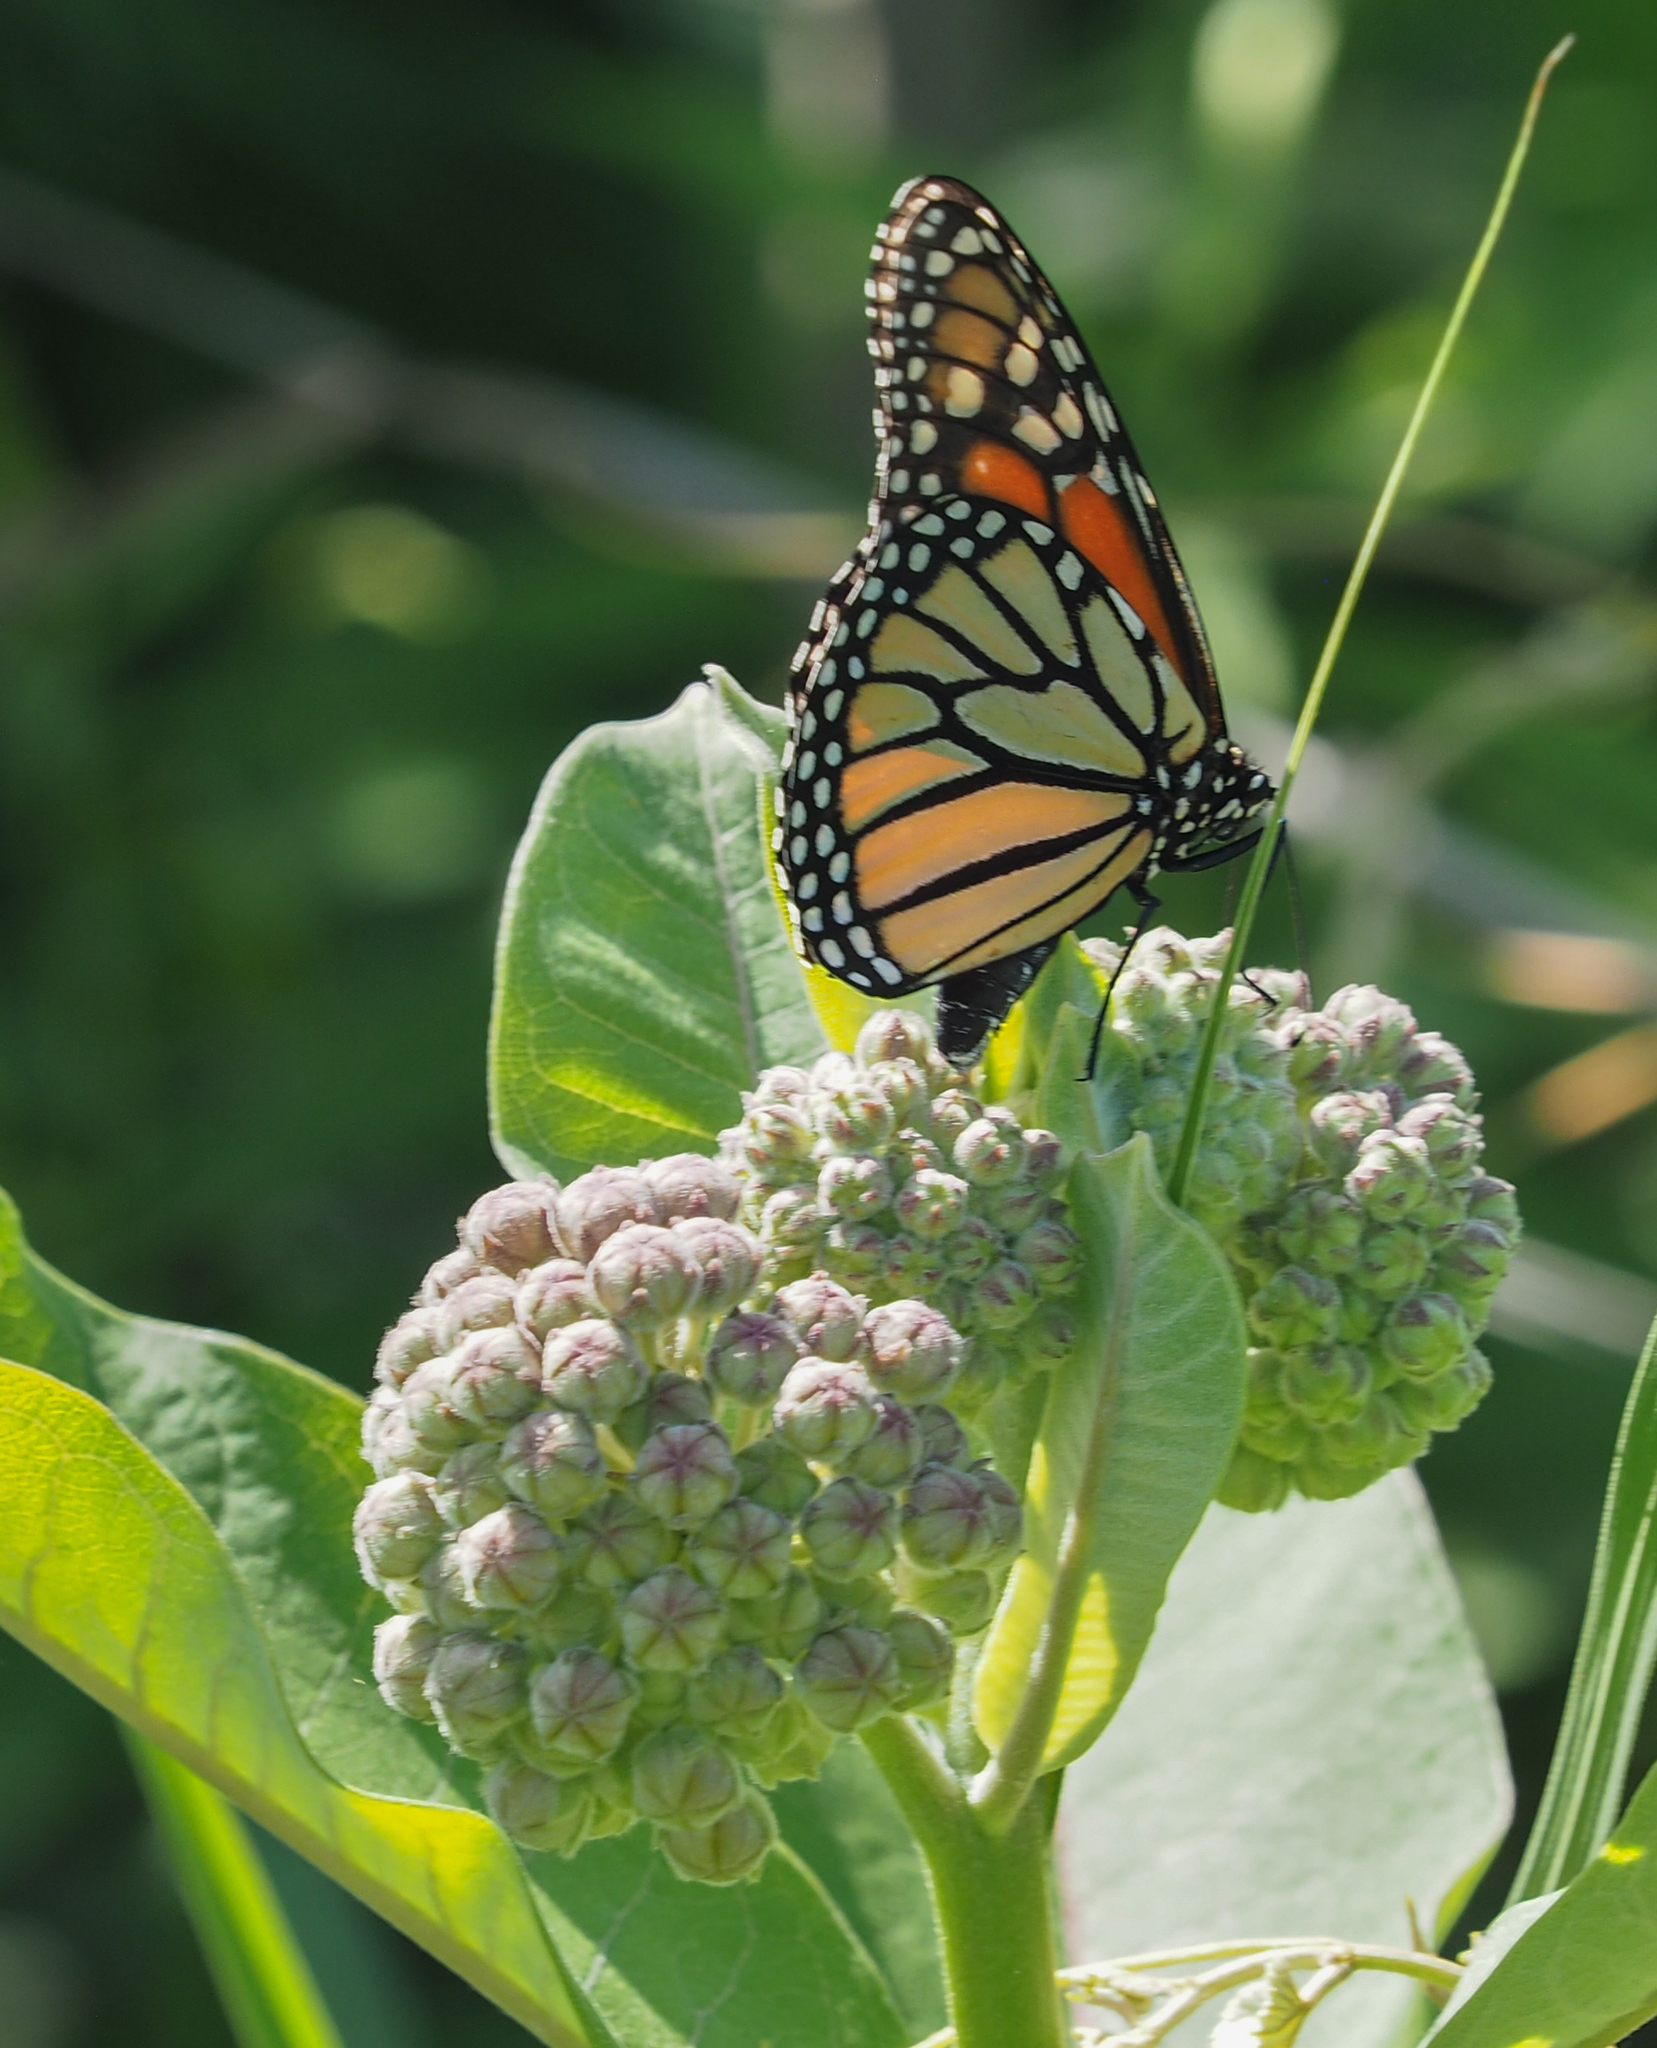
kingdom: Animalia
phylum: Arthropoda
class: Insecta
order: Lepidoptera
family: Nymphalidae
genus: Danaus
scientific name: Danaus plexippus
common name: Monarch
